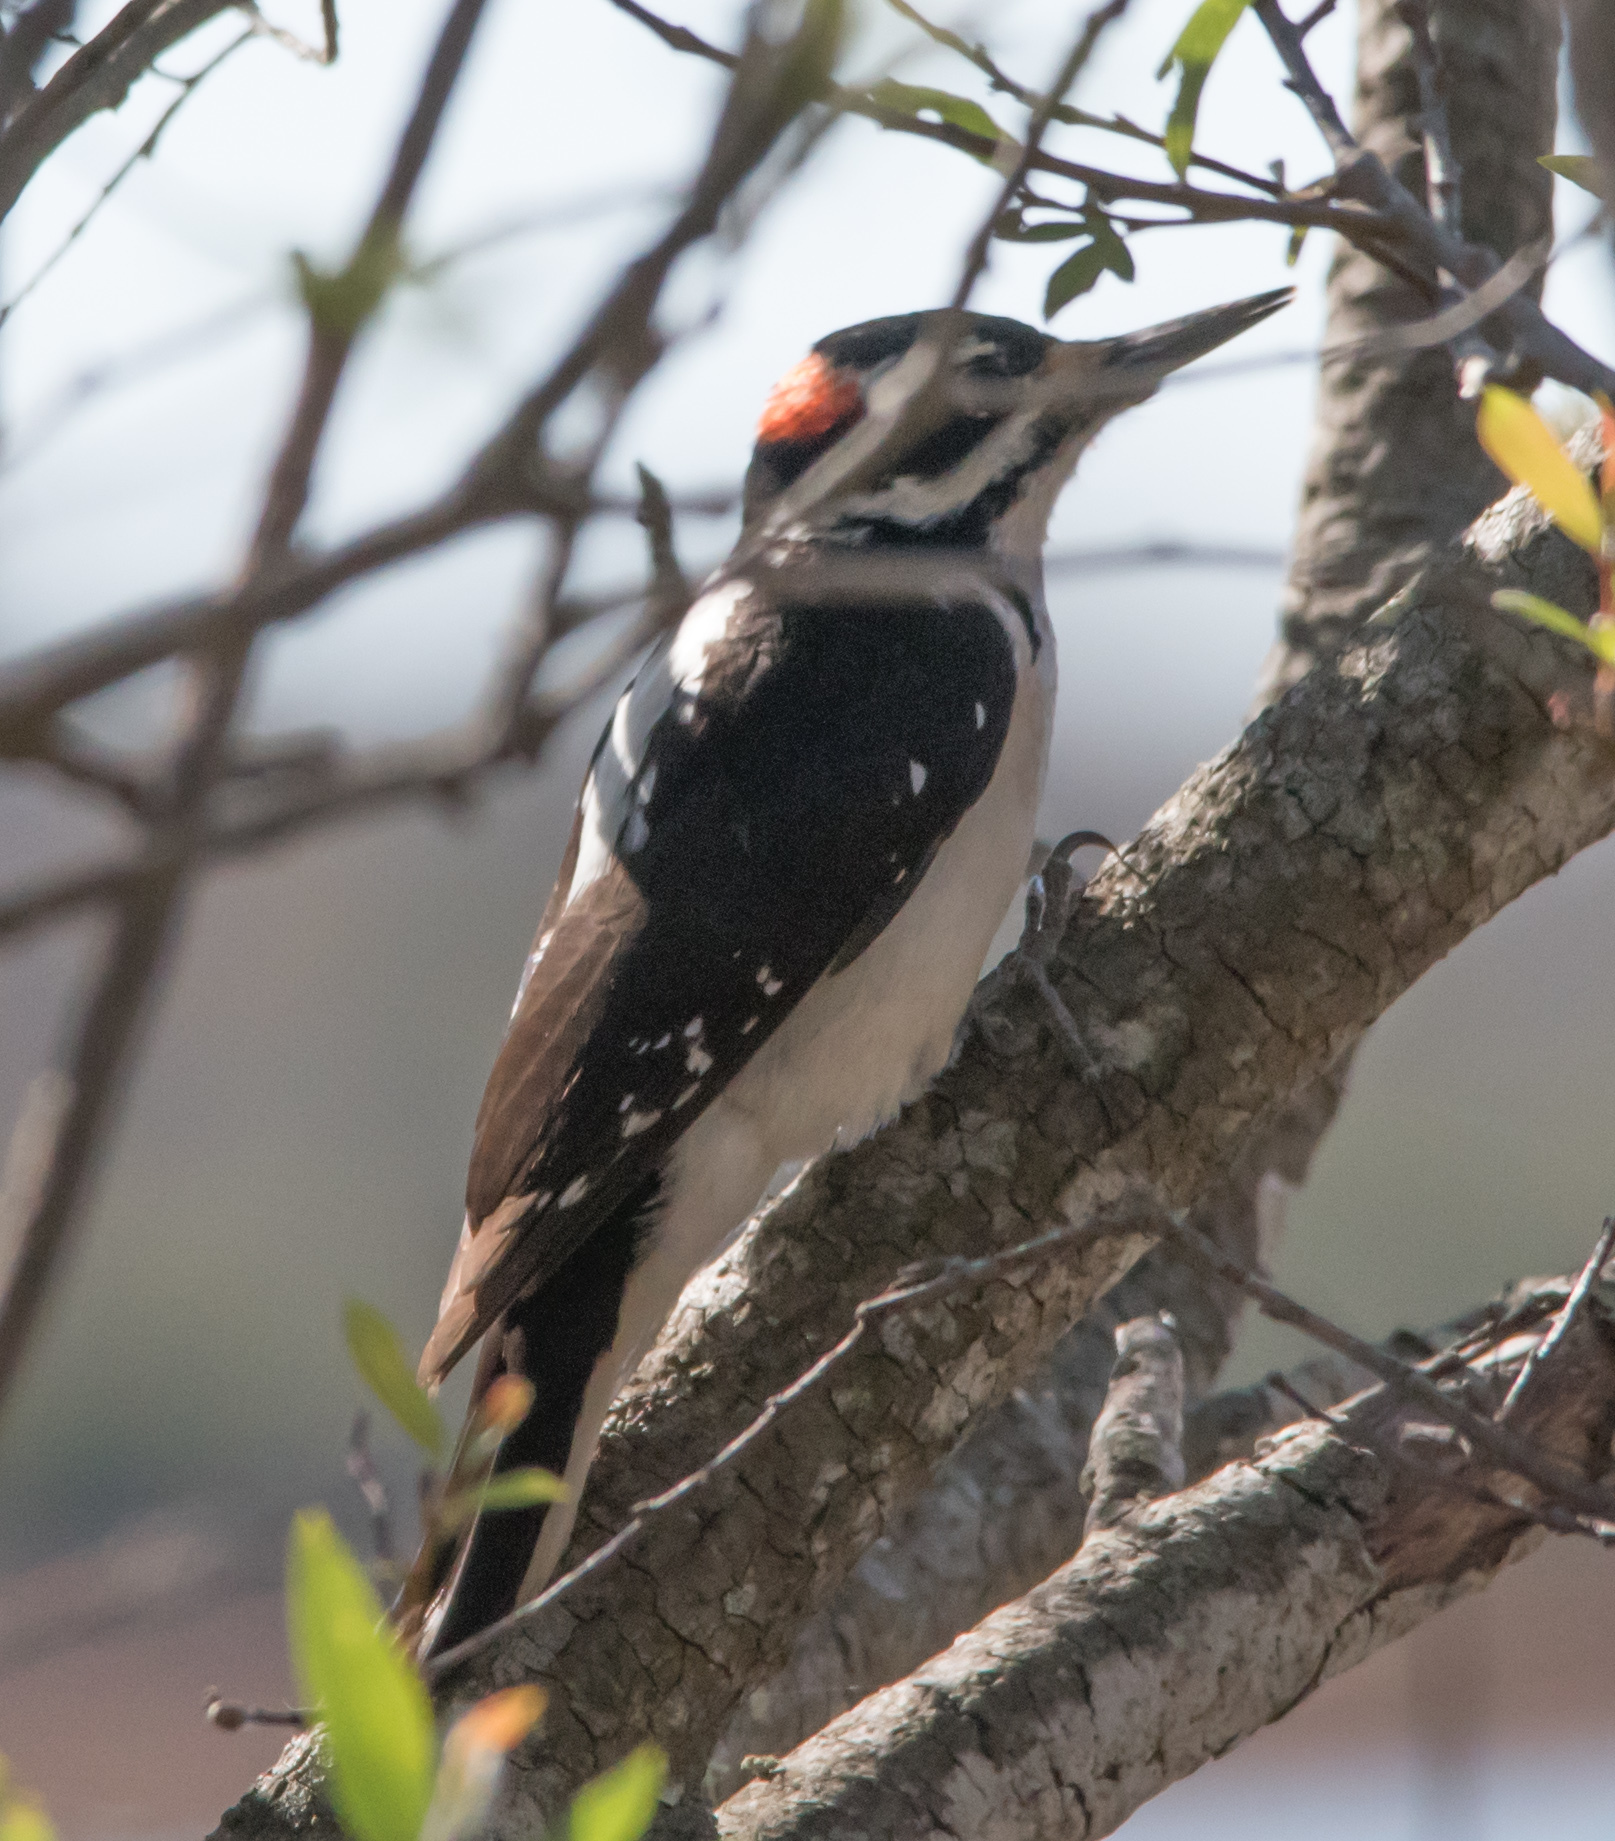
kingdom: Animalia
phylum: Chordata
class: Aves
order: Piciformes
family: Picidae
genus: Leuconotopicus
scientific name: Leuconotopicus villosus
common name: Hairy woodpecker
